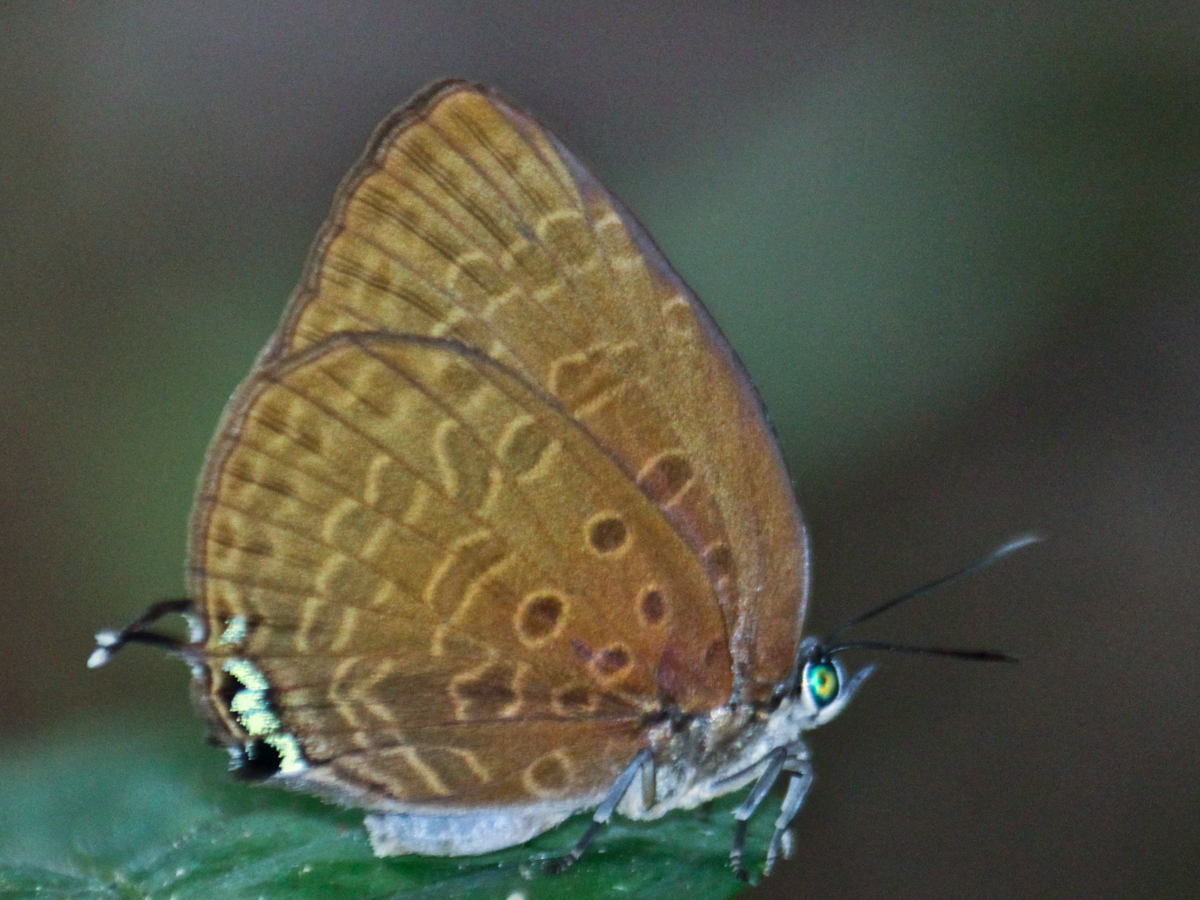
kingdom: Animalia
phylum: Arthropoda
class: Insecta
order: Lepidoptera
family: Lycaenidae
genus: Arhopala
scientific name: Arhopala atosia
